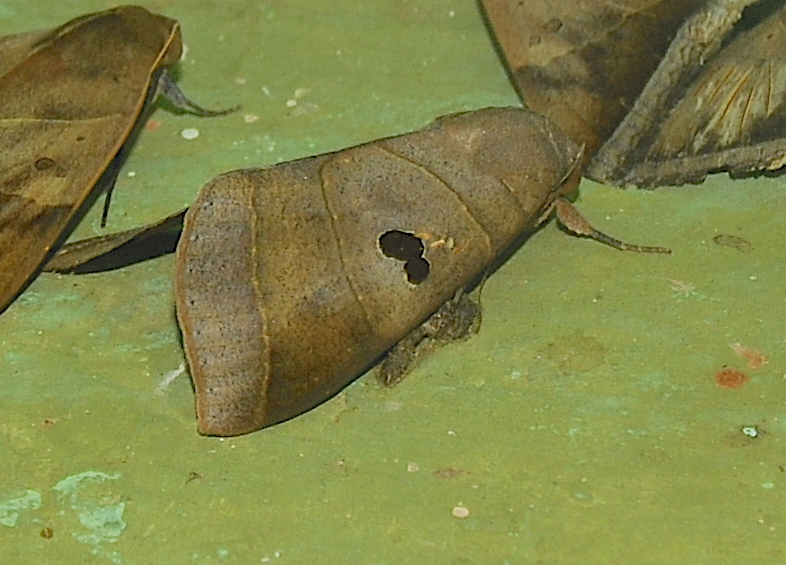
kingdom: Animalia
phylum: Arthropoda
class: Insecta
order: Lepidoptera
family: Erebidae
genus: Thyas
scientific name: Thyas coronata
